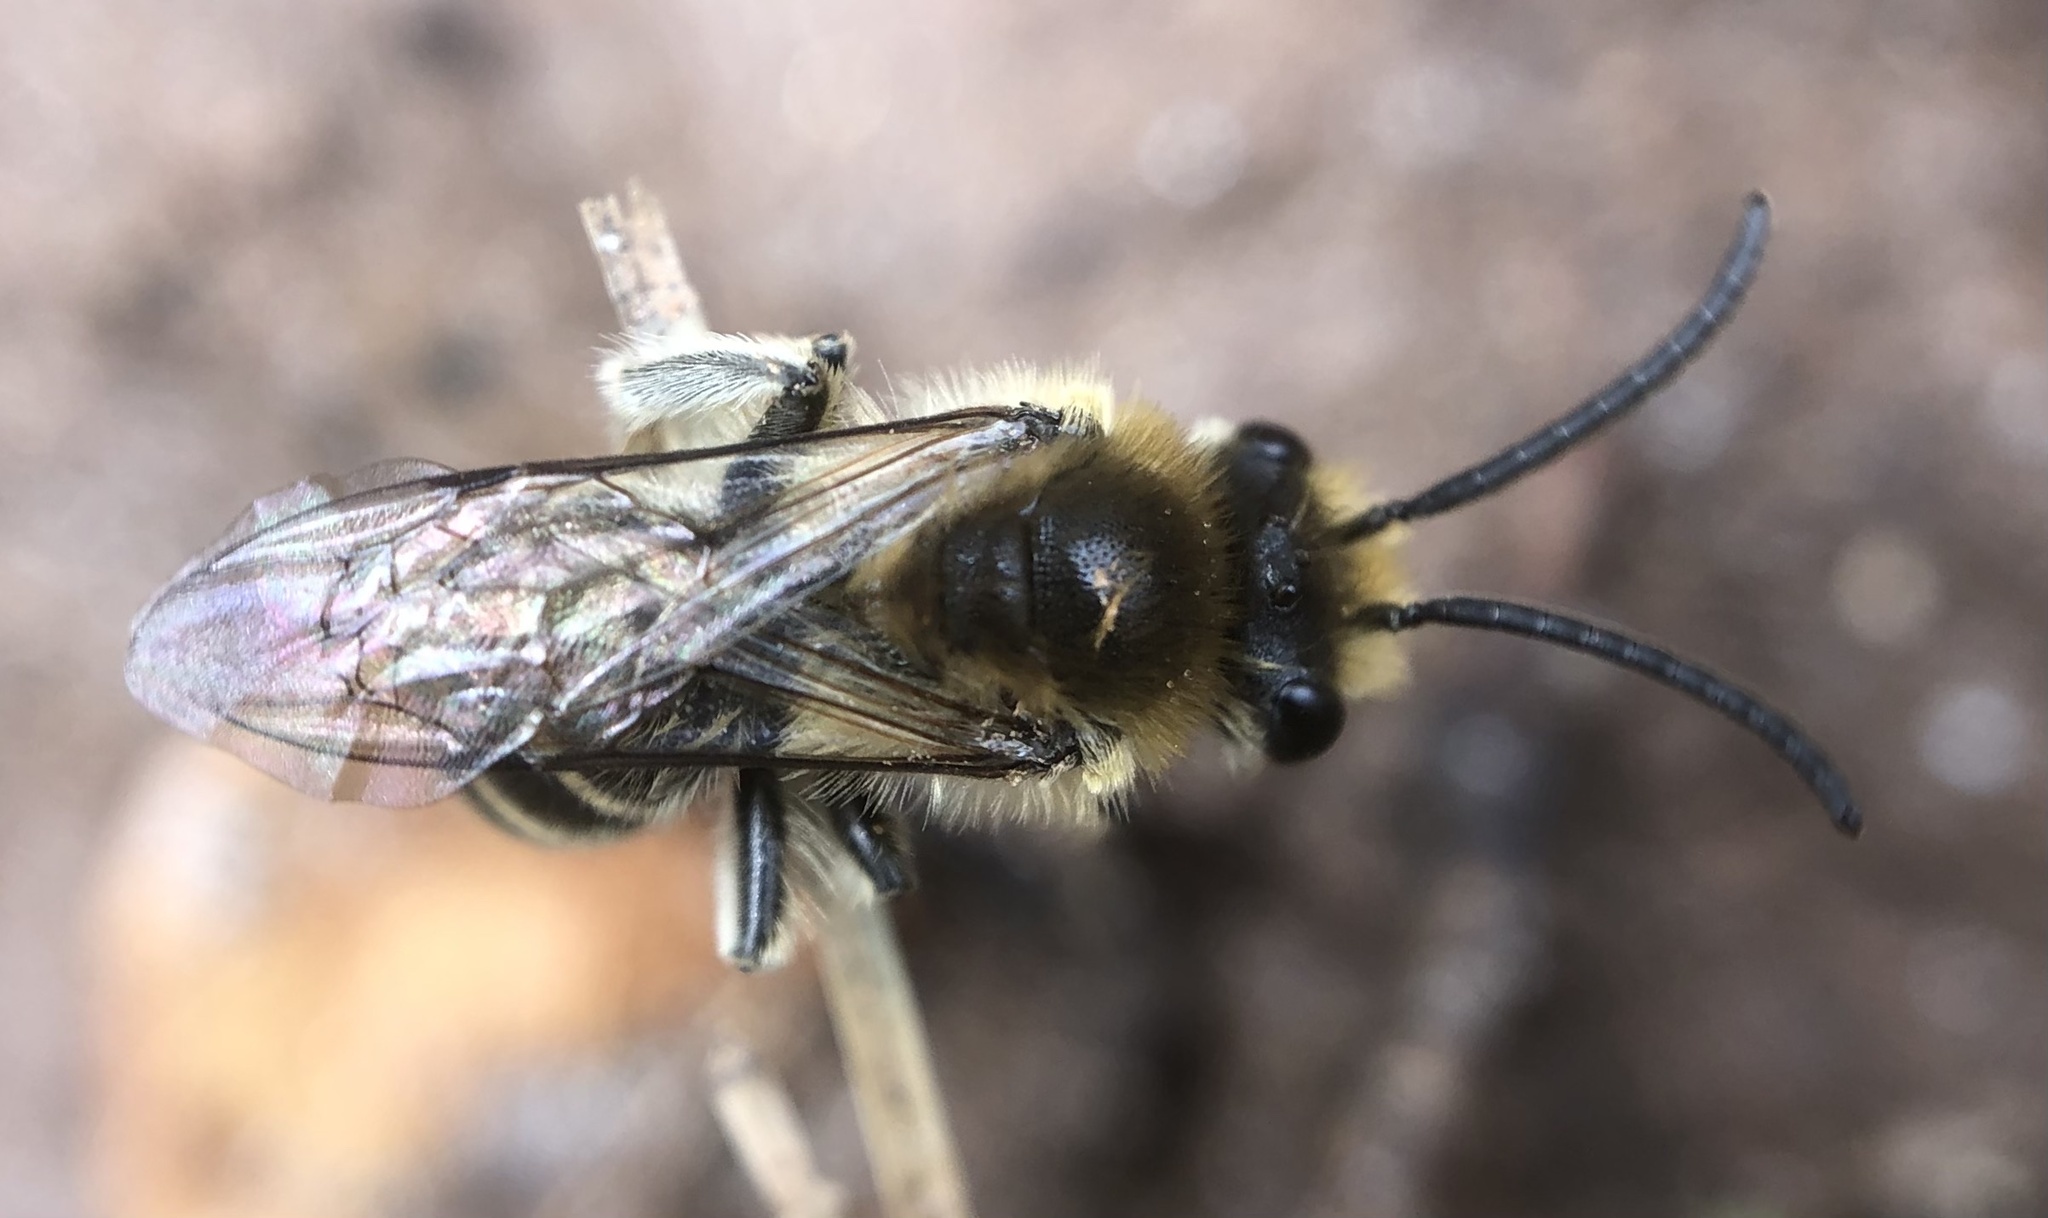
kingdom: Animalia
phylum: Arthropoda
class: Insecta
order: Hymenoptera
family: Colletidae
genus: Colletes
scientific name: Colletes inaequalis
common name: Unequal cellophane bee
